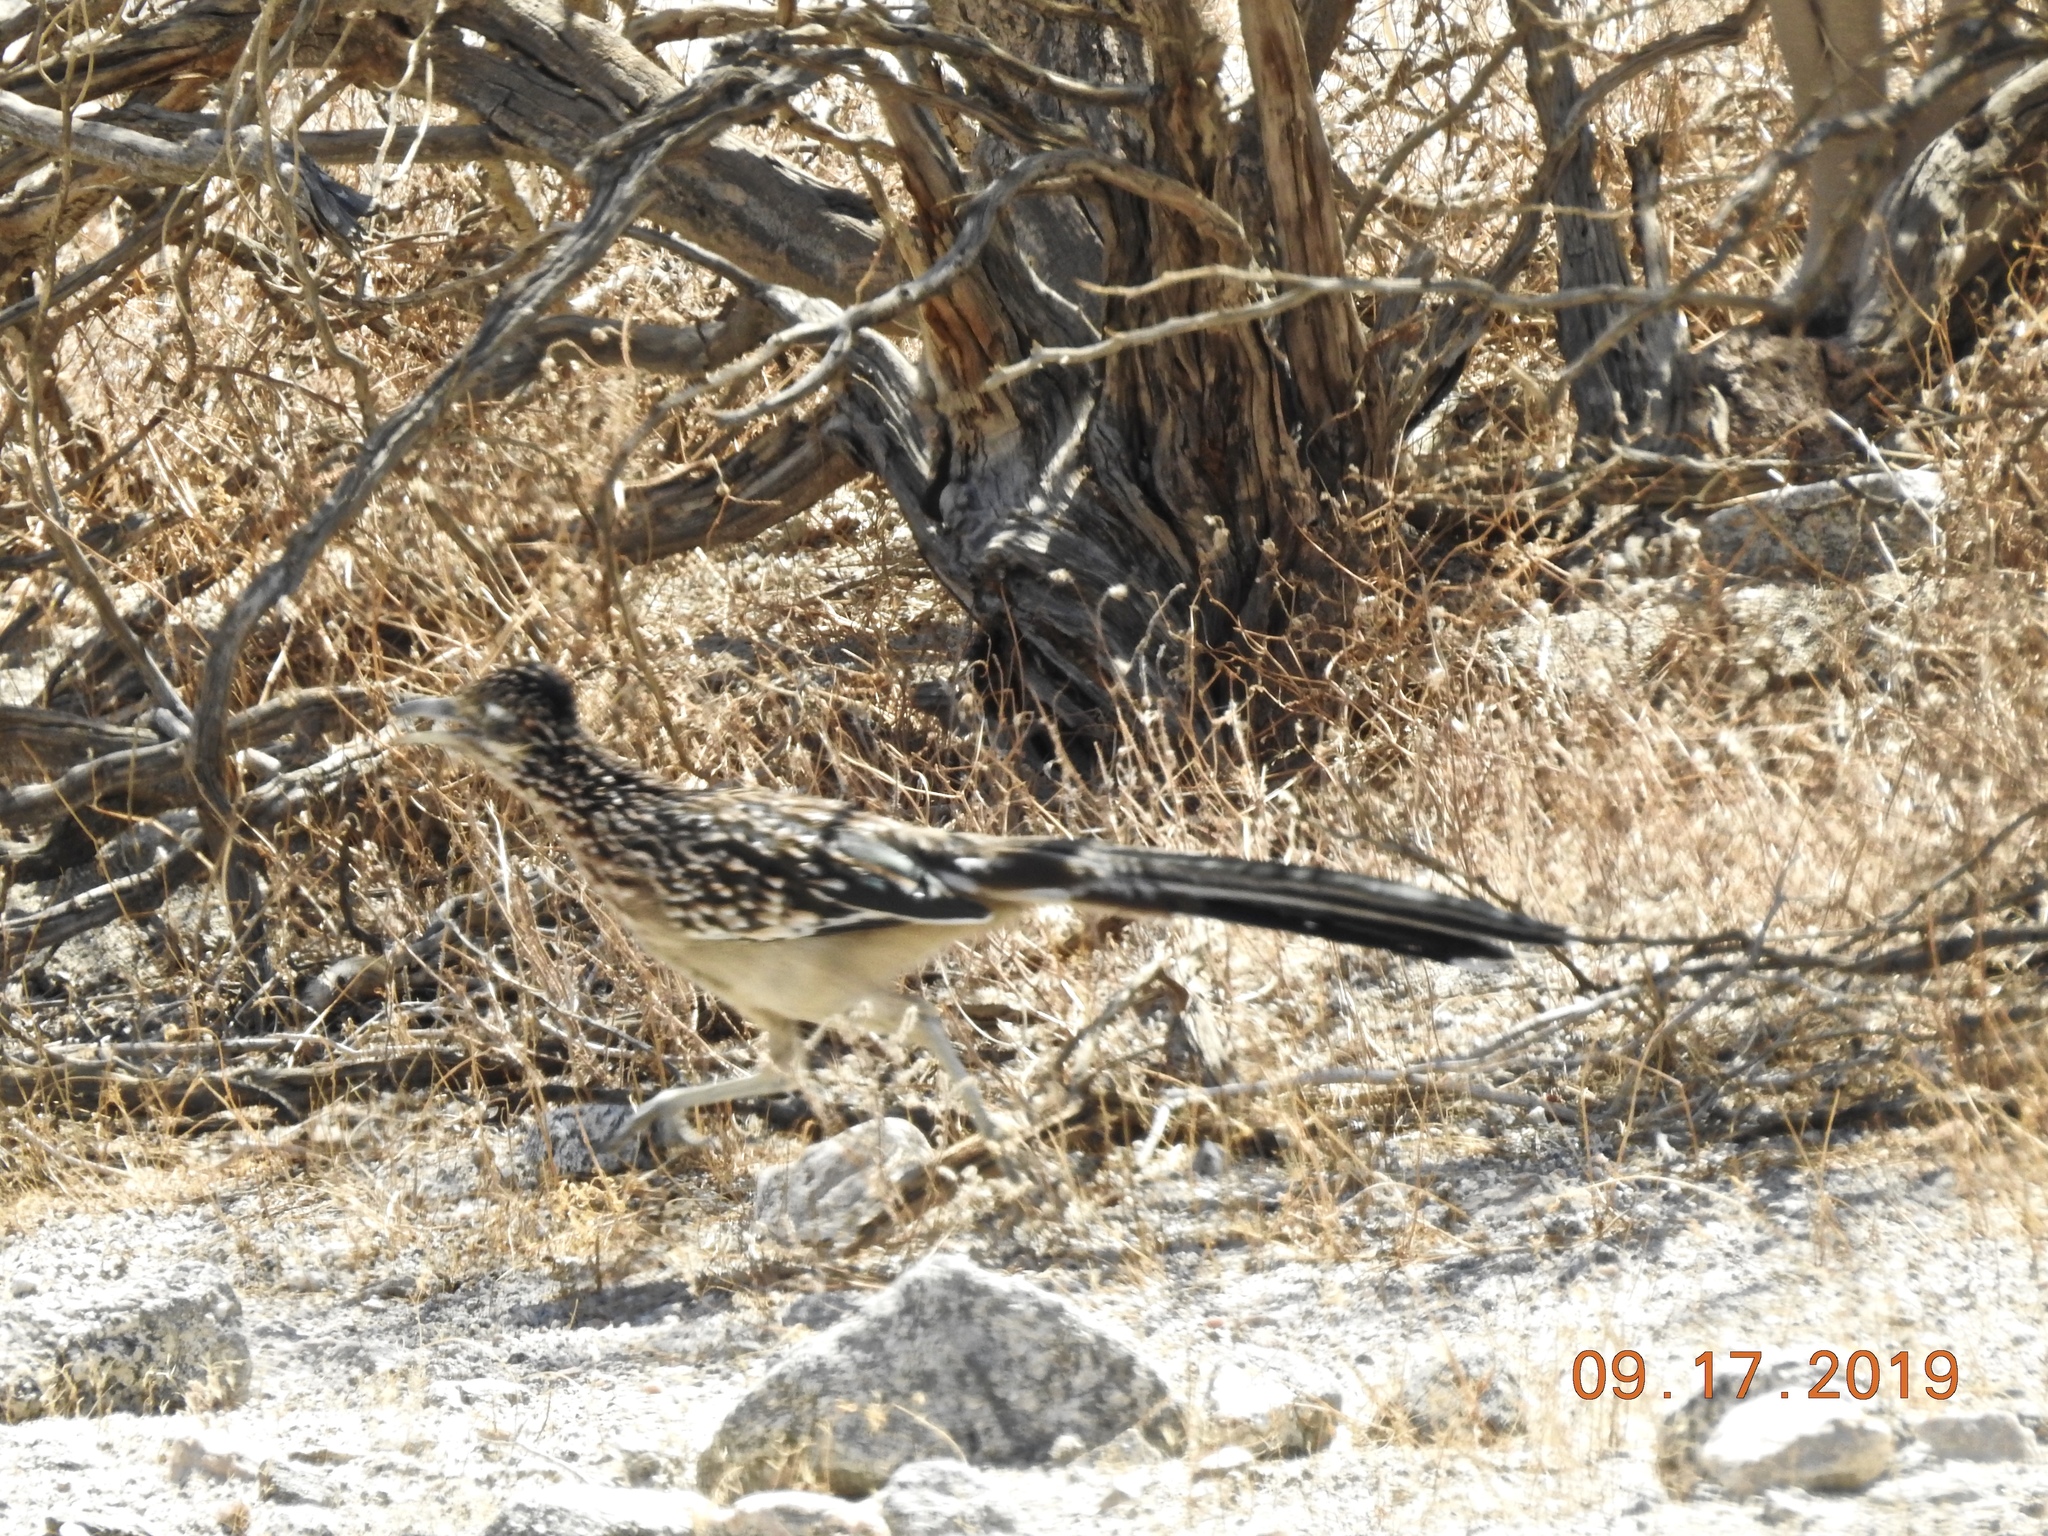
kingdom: Animalia
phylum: Chordata
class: Aves
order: Cuculiformes
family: Cuculidae
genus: Geococcyx
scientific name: Geococcyx californianus
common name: Greater roadrunner
